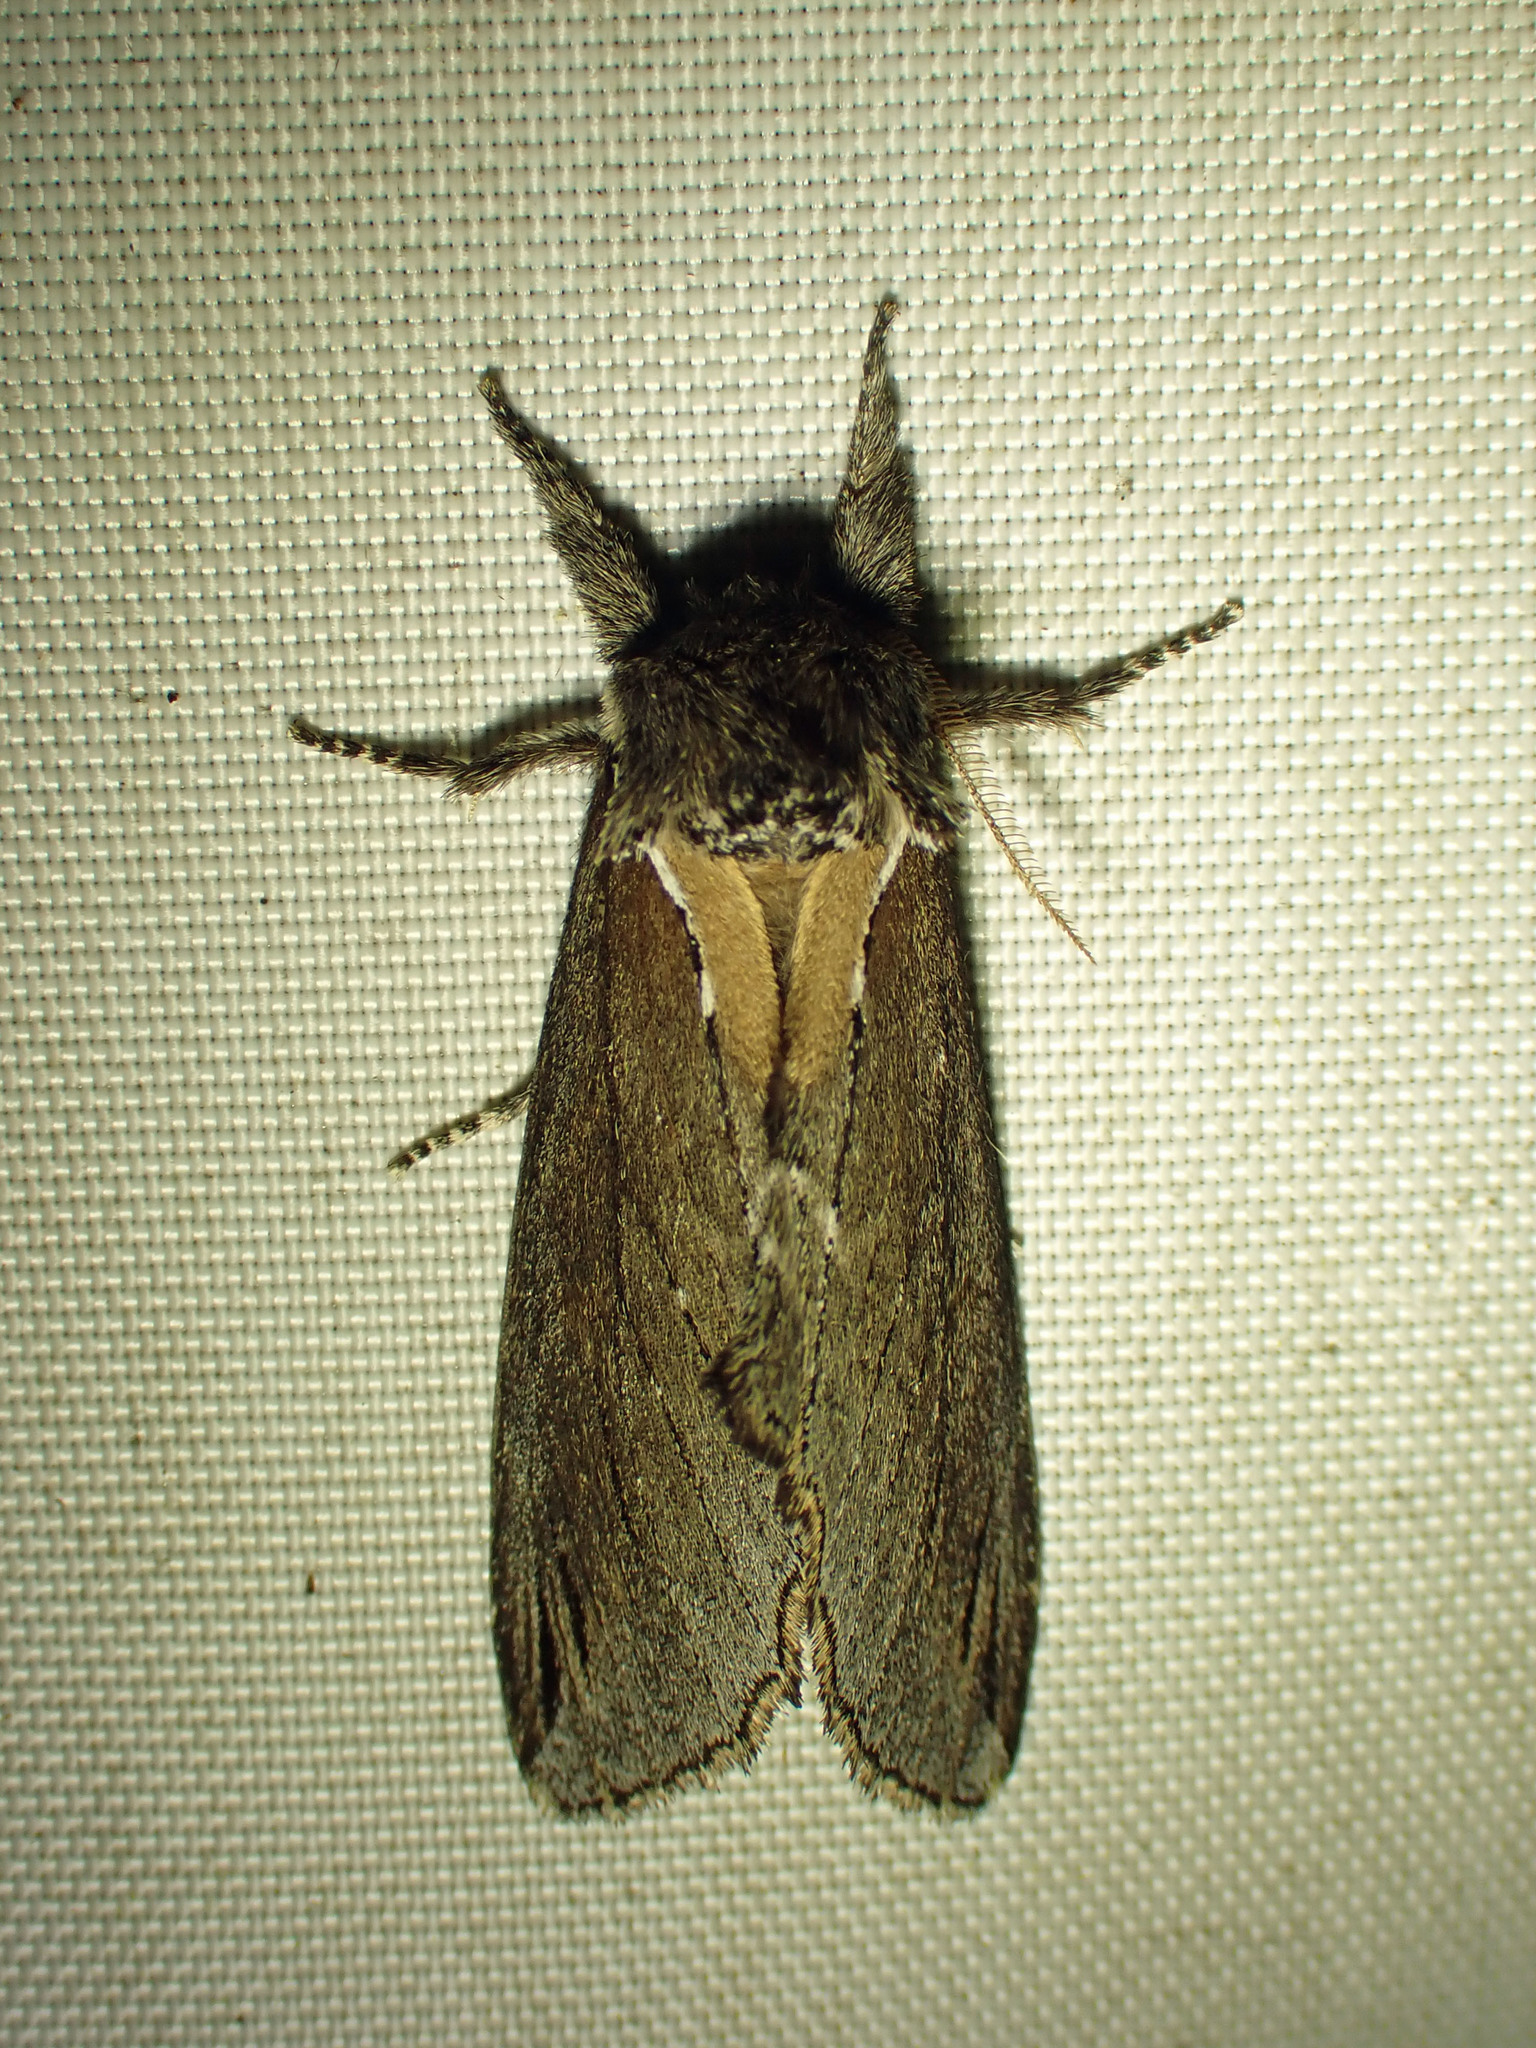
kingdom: Animalia
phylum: Arthropoda
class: Insecta
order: Lepidoptera
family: Notodontidae
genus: Pheosidea
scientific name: Pheosidea elegans
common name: Elegant prominent
